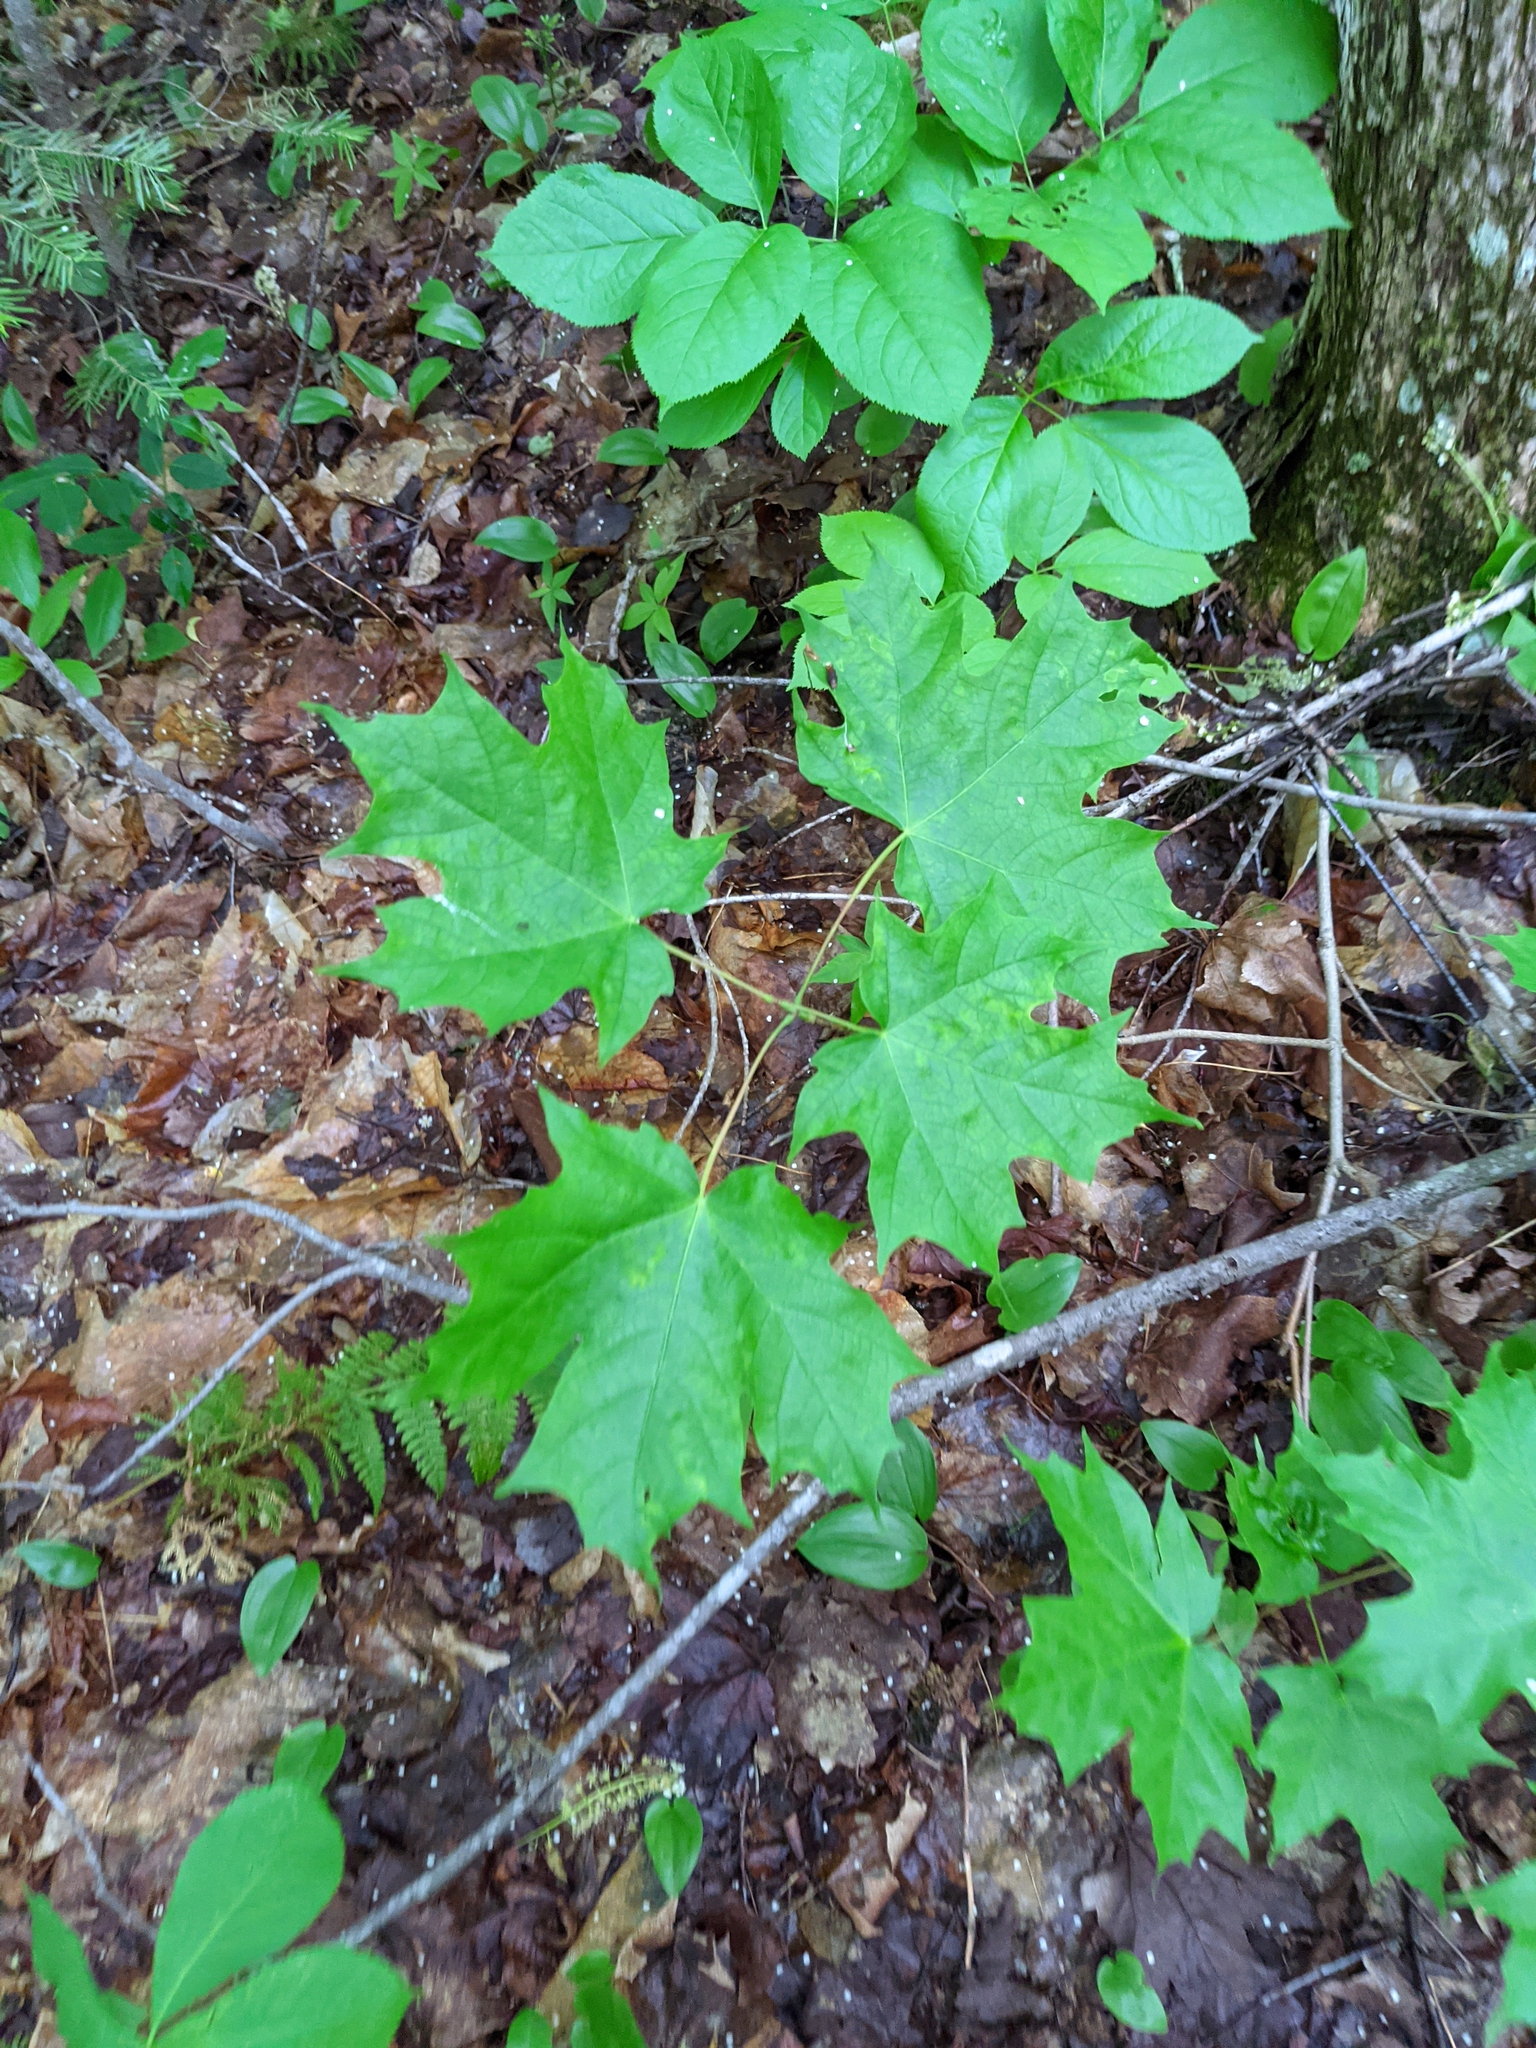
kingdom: Plantae
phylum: Tracheophyta
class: Magnoliopsida
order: Sapindales
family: Sapindaceae
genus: Acer
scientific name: Acer saccharum
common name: Sugar maple
